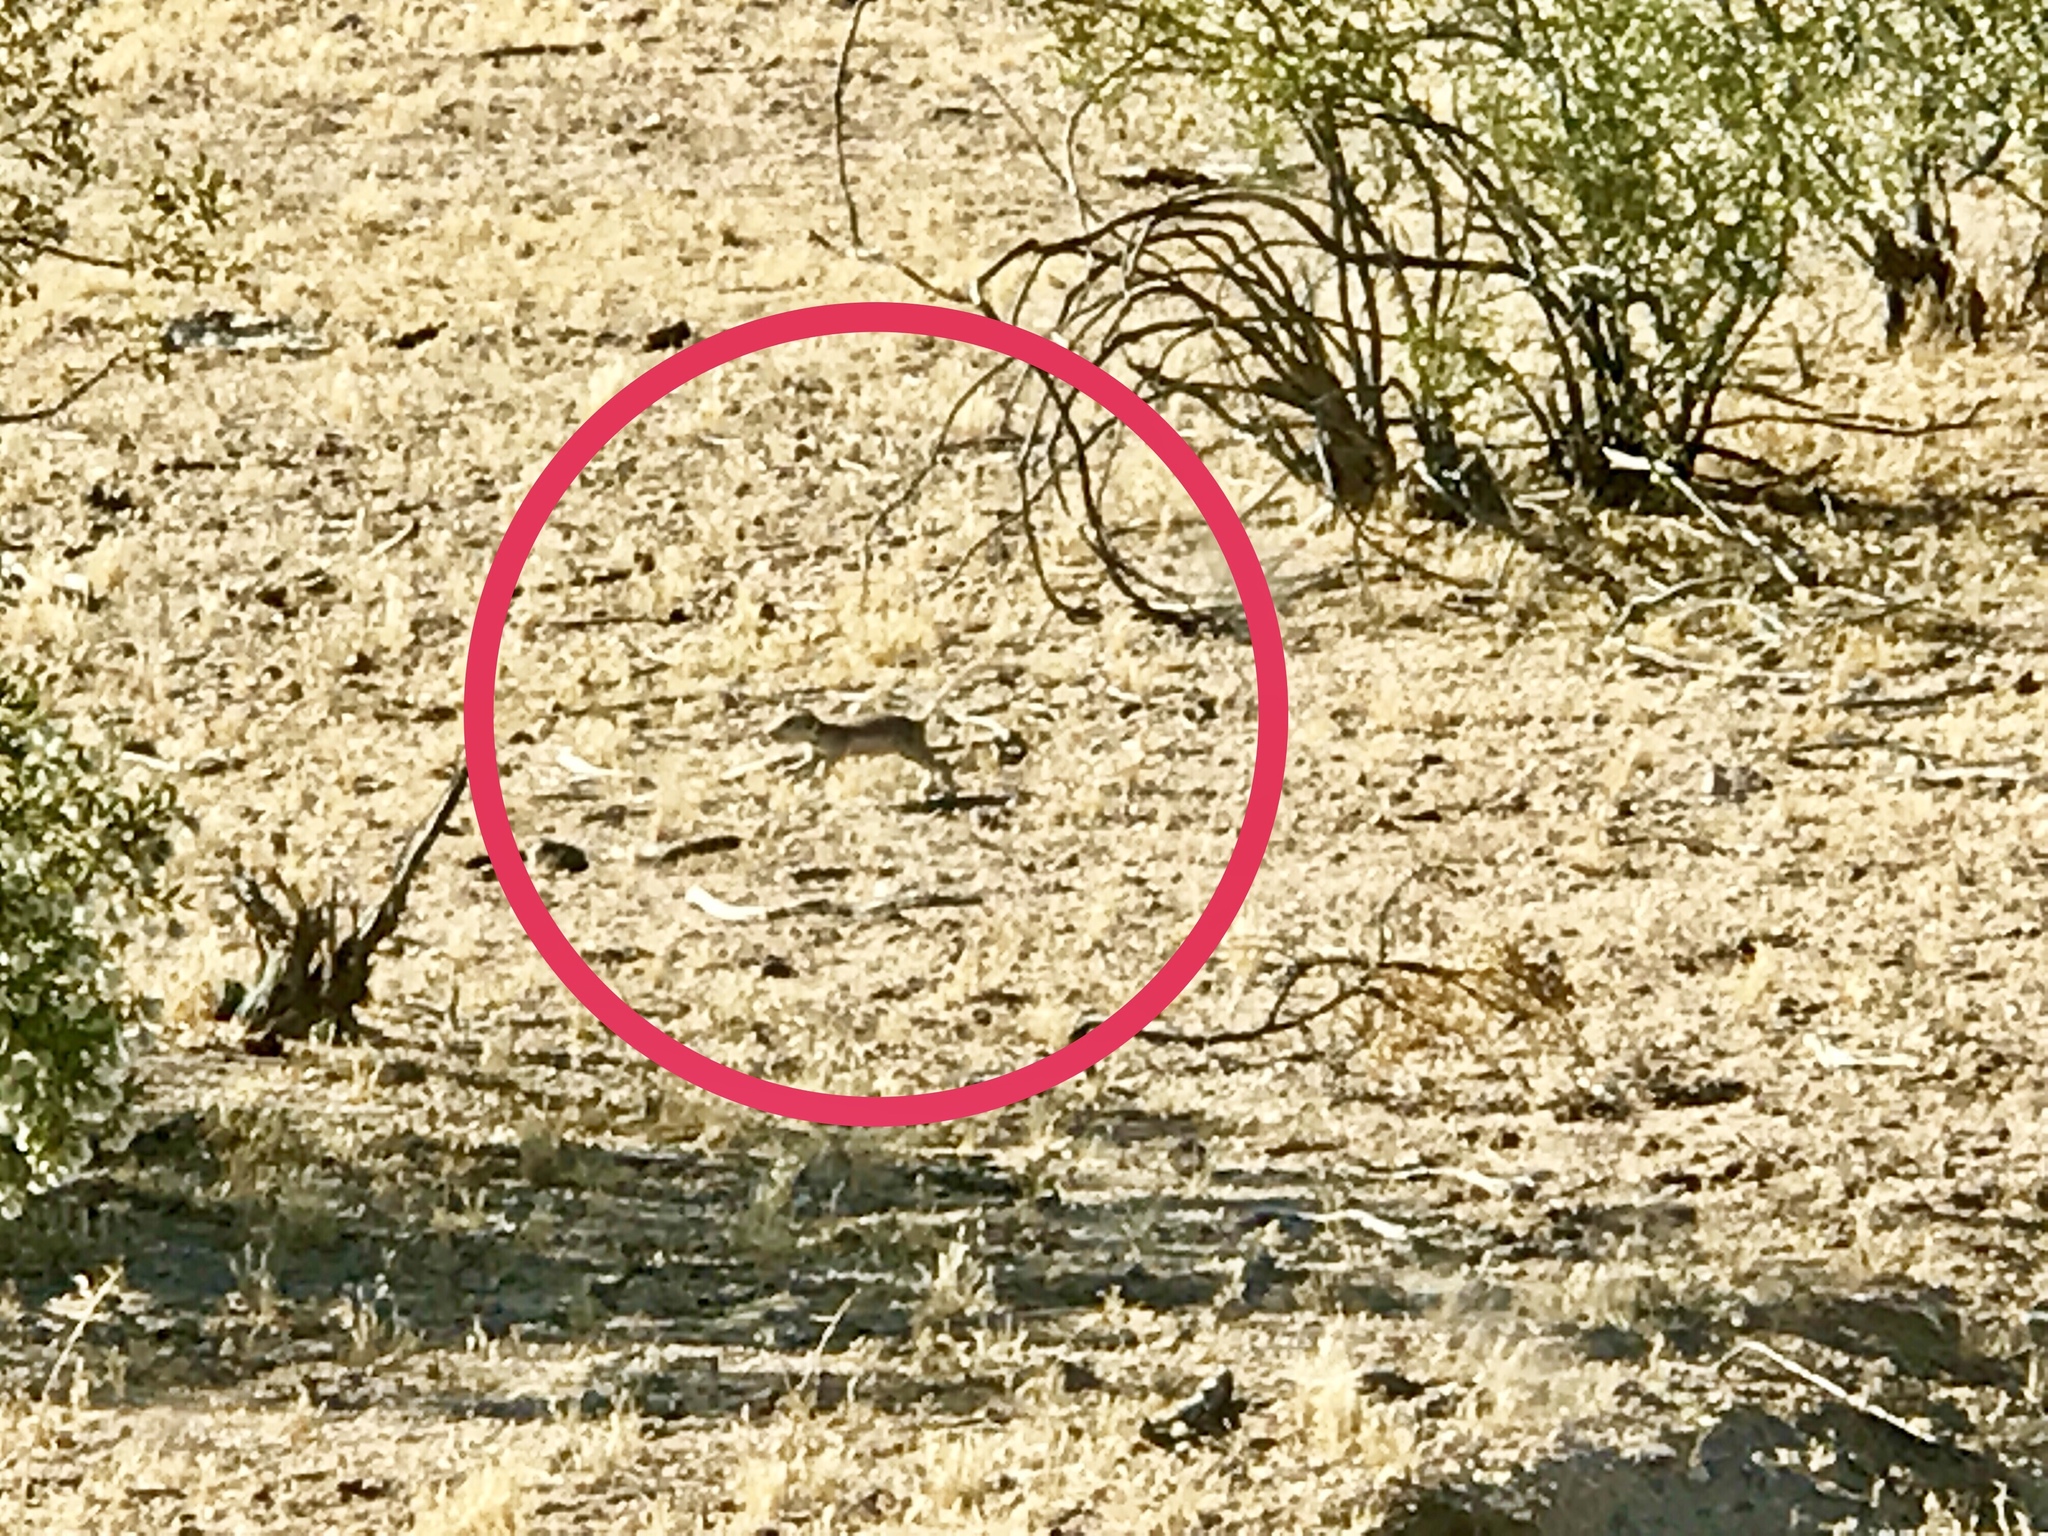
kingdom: Animalia
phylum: Chordata
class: Mammalia
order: Rodentia
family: Sciuridae
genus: Xerospermophilus
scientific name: Xerospermophilus tereticaudus
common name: Round-tailed ground squirrel
